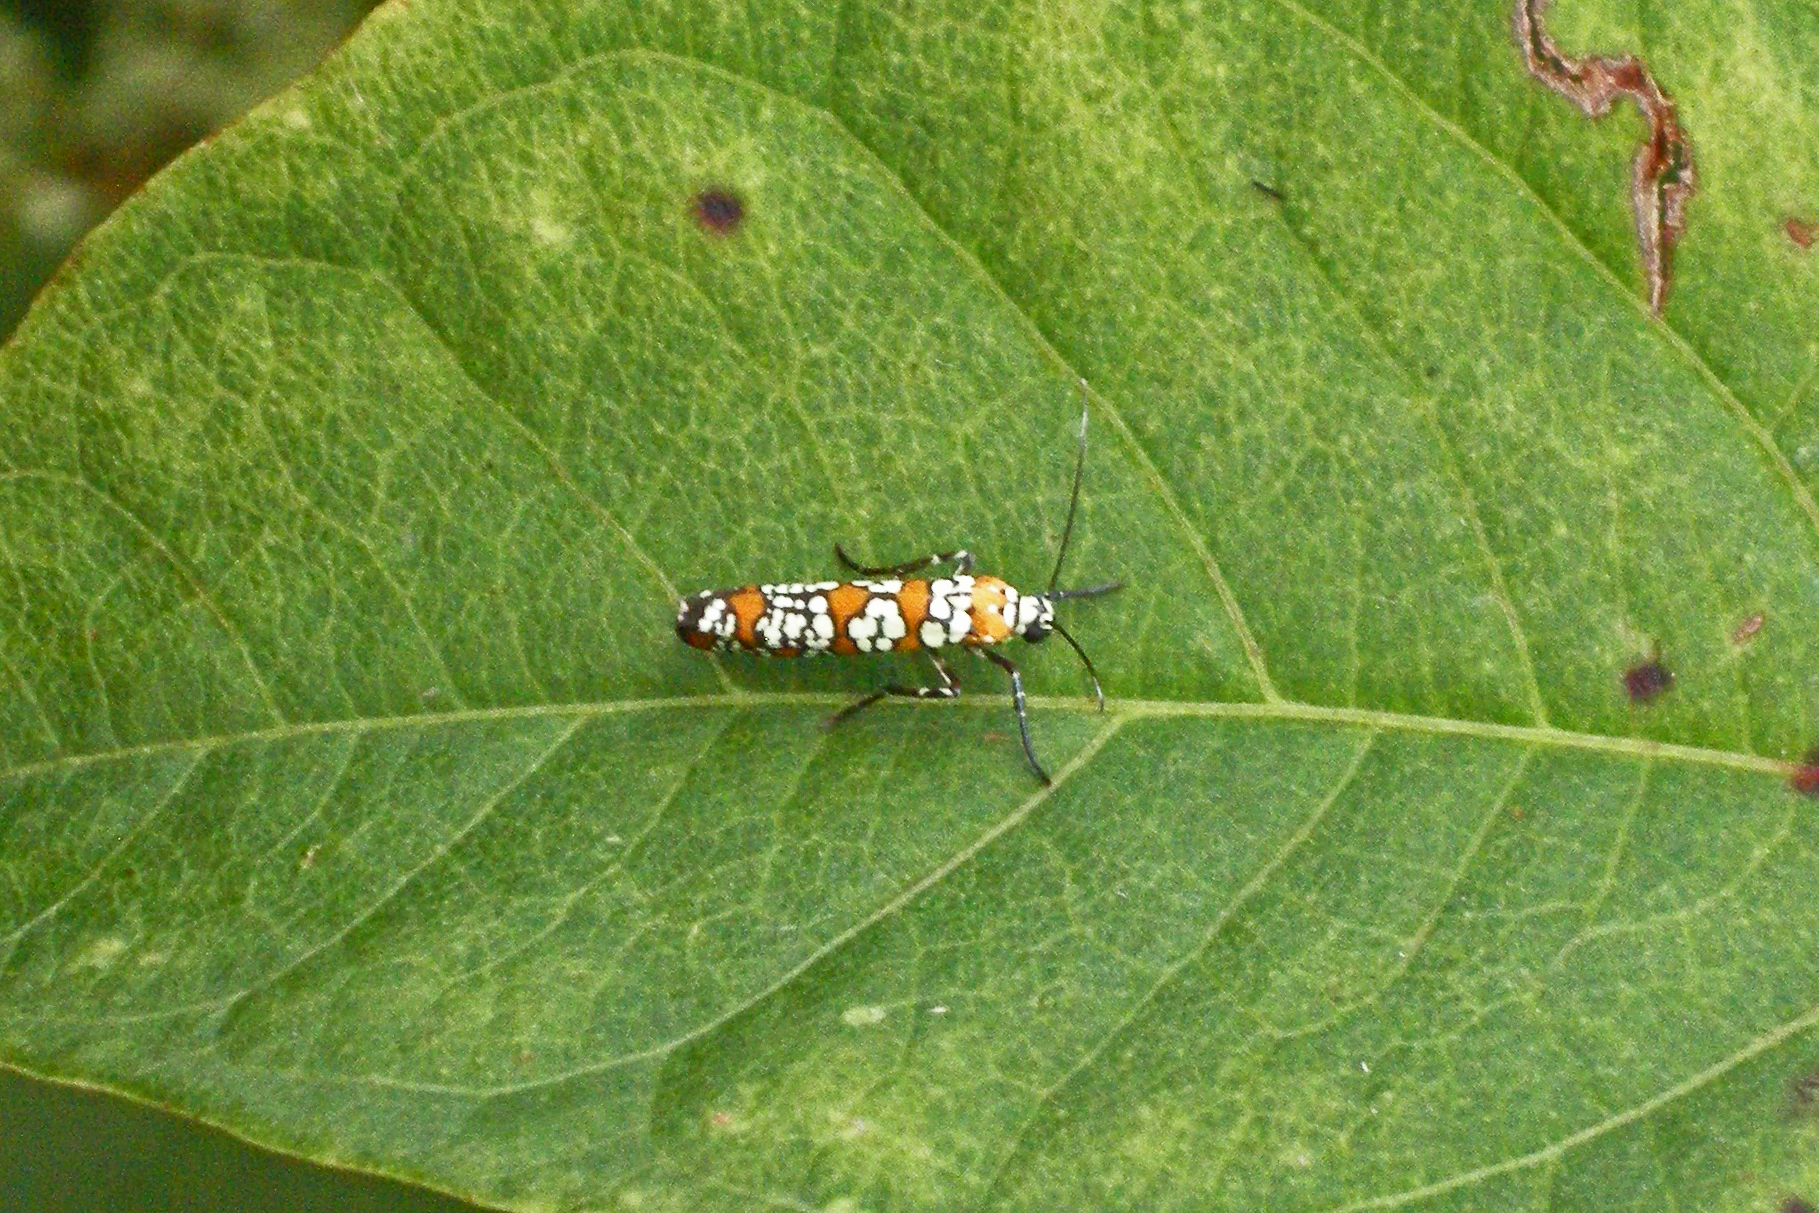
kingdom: Animalia
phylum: Arthropoda
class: Insecta
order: Lepidoptera
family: Attevidae
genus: Atteva
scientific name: Atteva punctella
